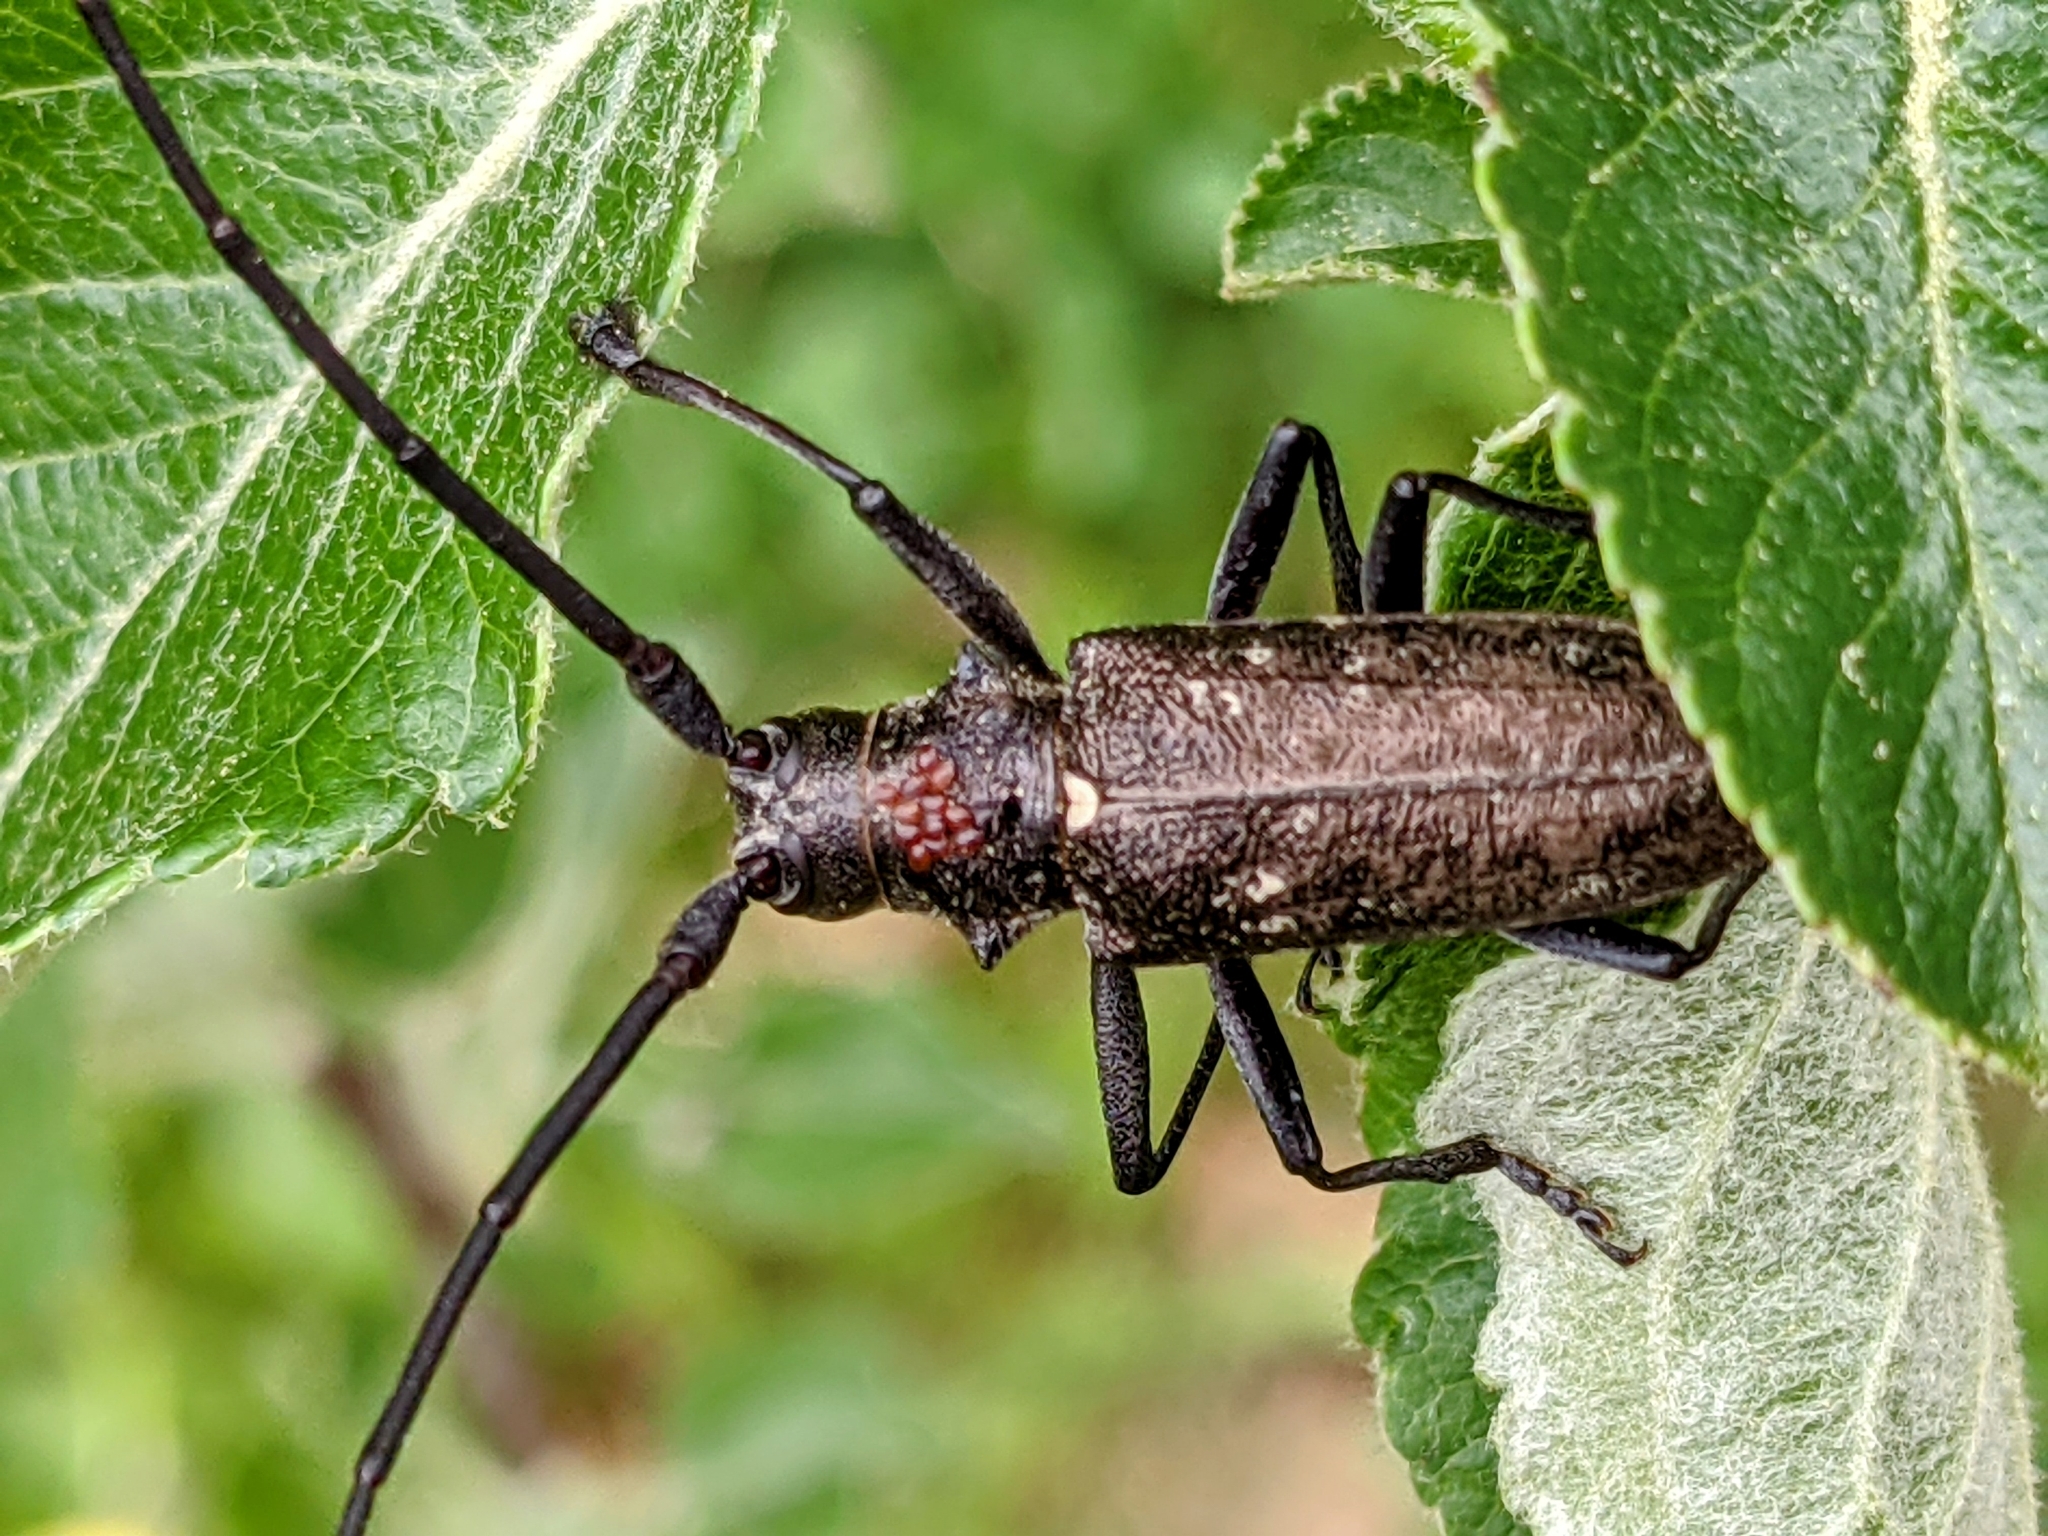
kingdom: Animalia
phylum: Arthropoda
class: Insecta
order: Coleoptera
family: Cerambycidae
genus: Monochamus
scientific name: Monochamus scutellatus
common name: White-spotted sawyer beetle
